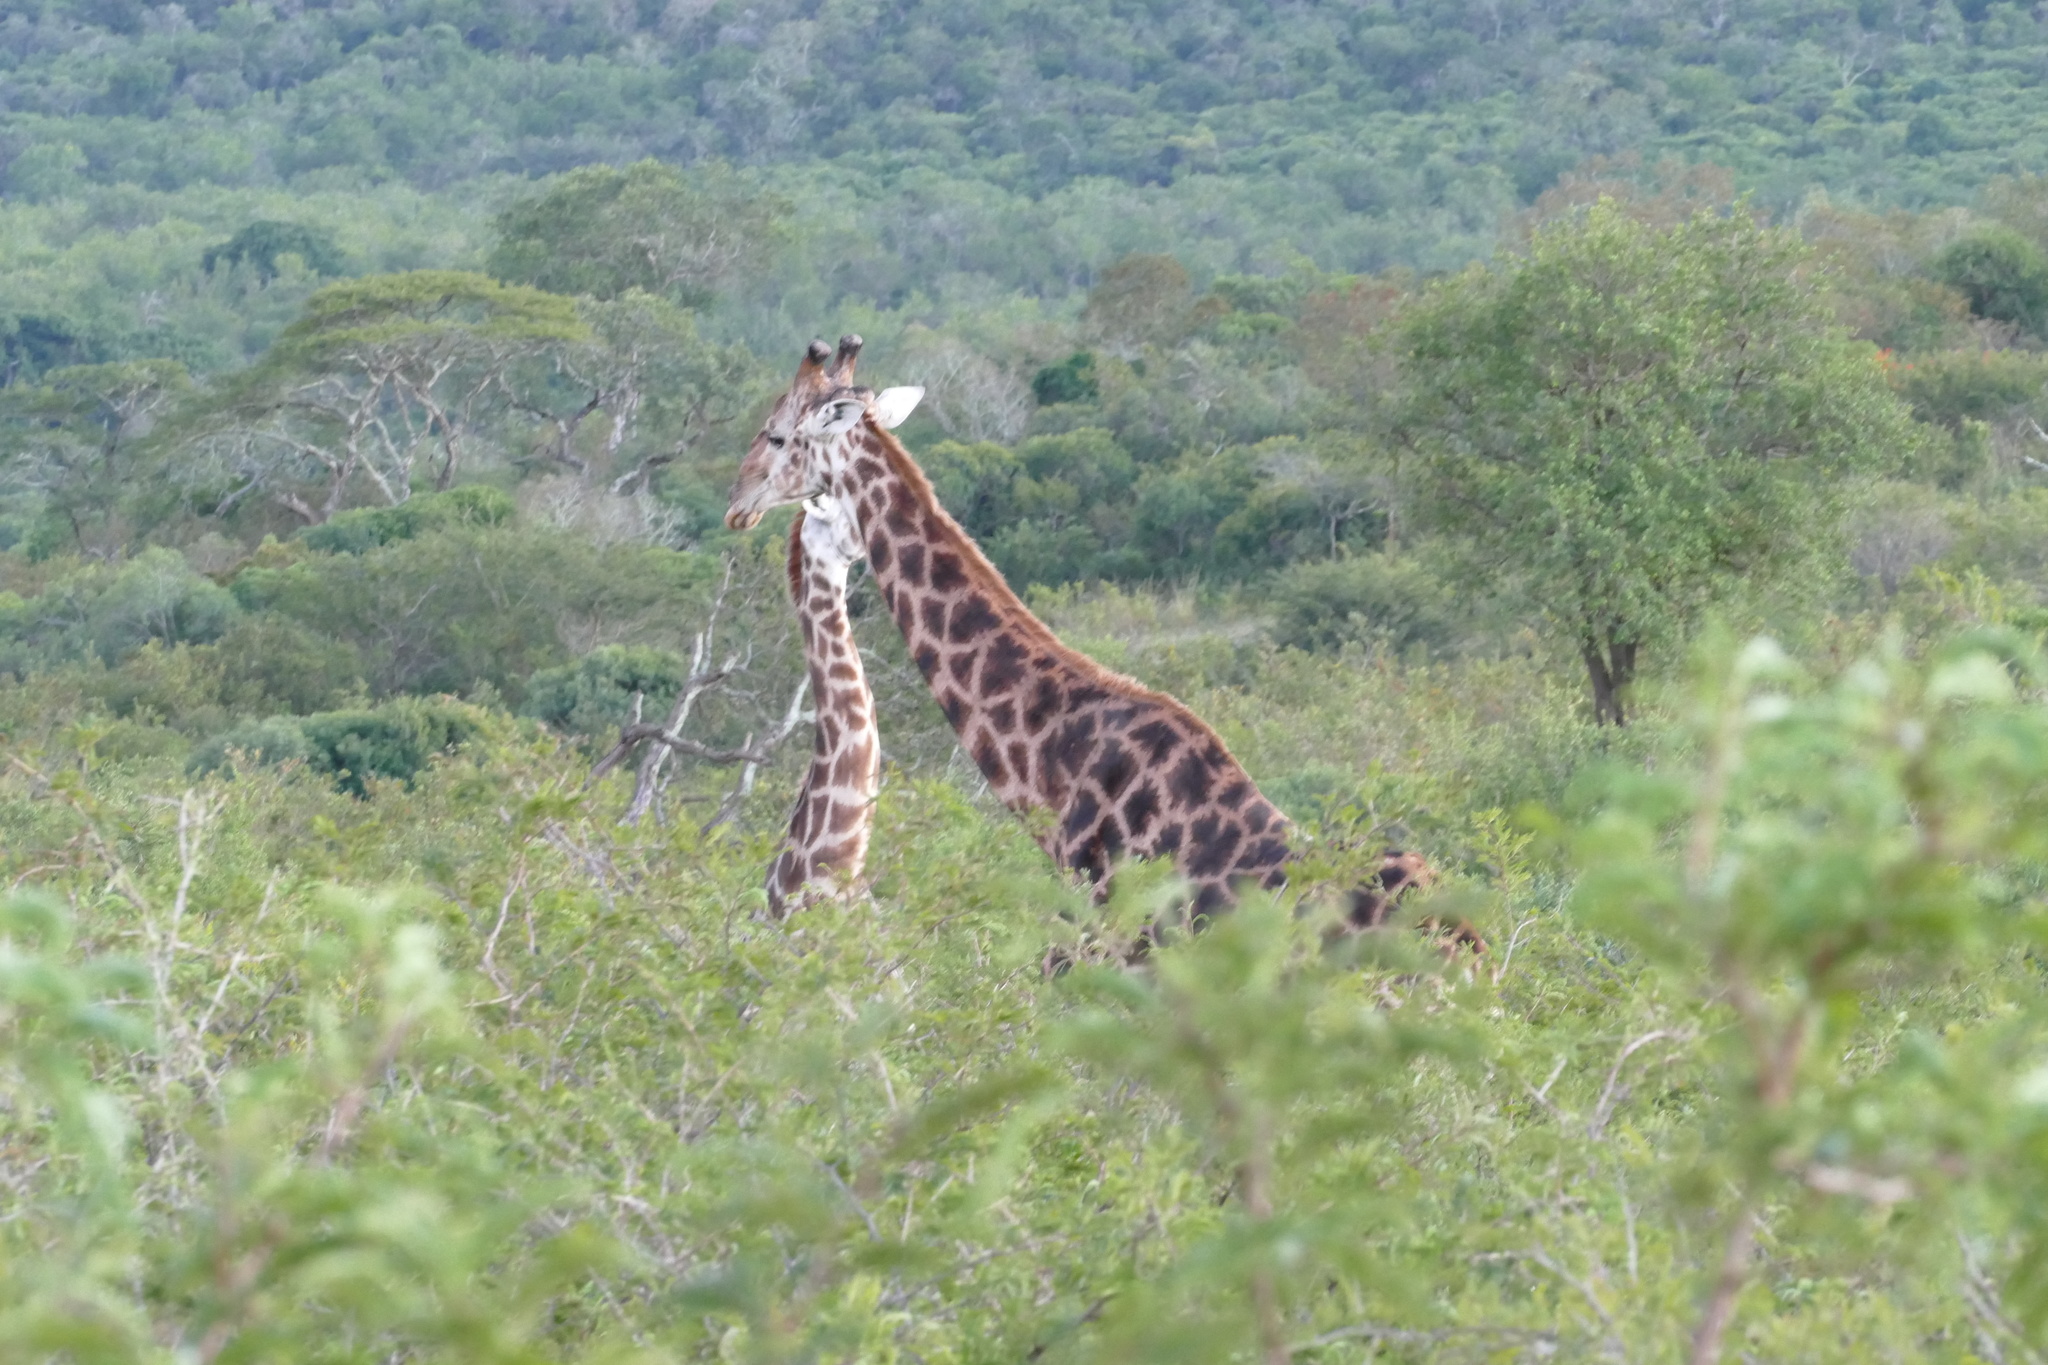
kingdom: Animalia
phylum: Chordata
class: Mammalia
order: Artiodactyla
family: Giraffidae
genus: Giraffa
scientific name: Giraffa giraffa
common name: Southern giraffe
